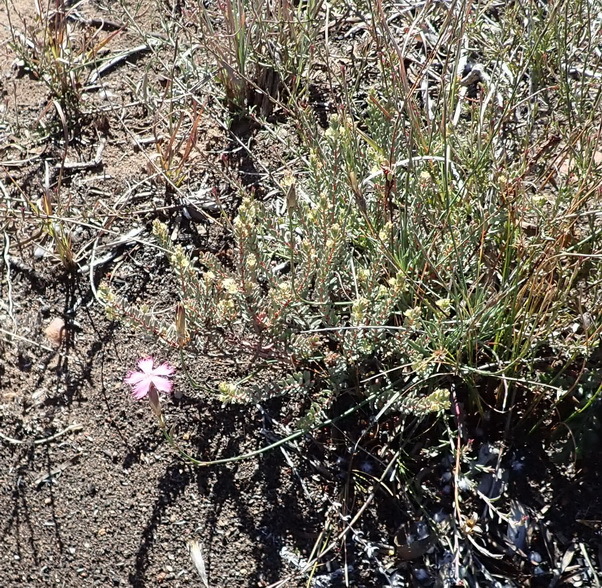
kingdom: Plantae
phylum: Tracheophyta
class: Magnoliopsida
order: Caryophyllales
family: Caryophyllaceae
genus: Dianthus
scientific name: Dianthus bolusii
